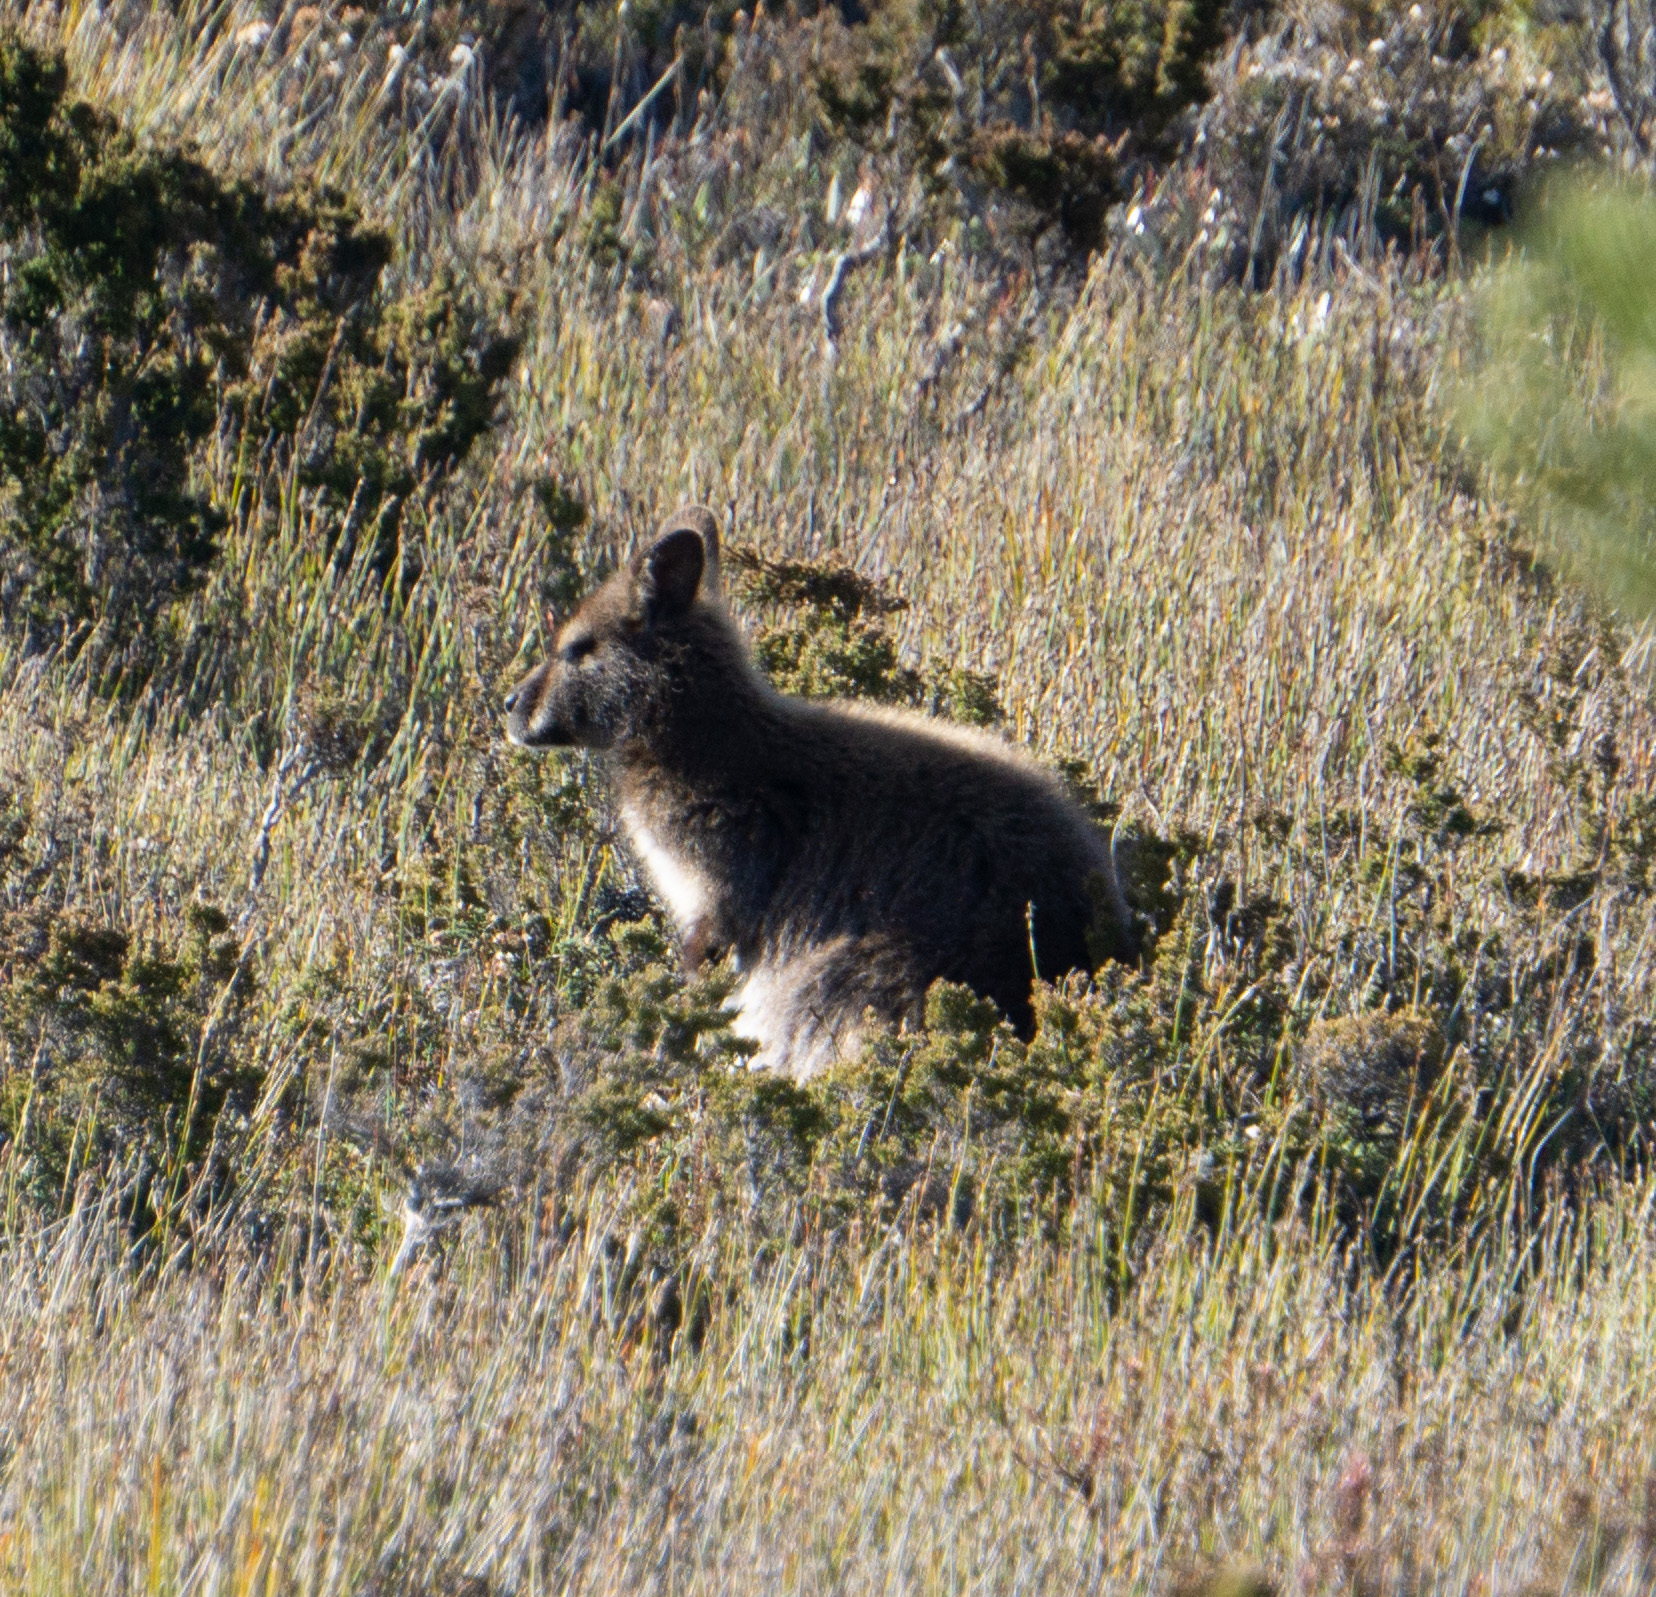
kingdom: Animalia
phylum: Chordata
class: Mammalia
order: Diprotodontia
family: Macropodidae
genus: Notamacropus
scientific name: Notamacropus rufogriseus
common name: Red-necked wallaby
